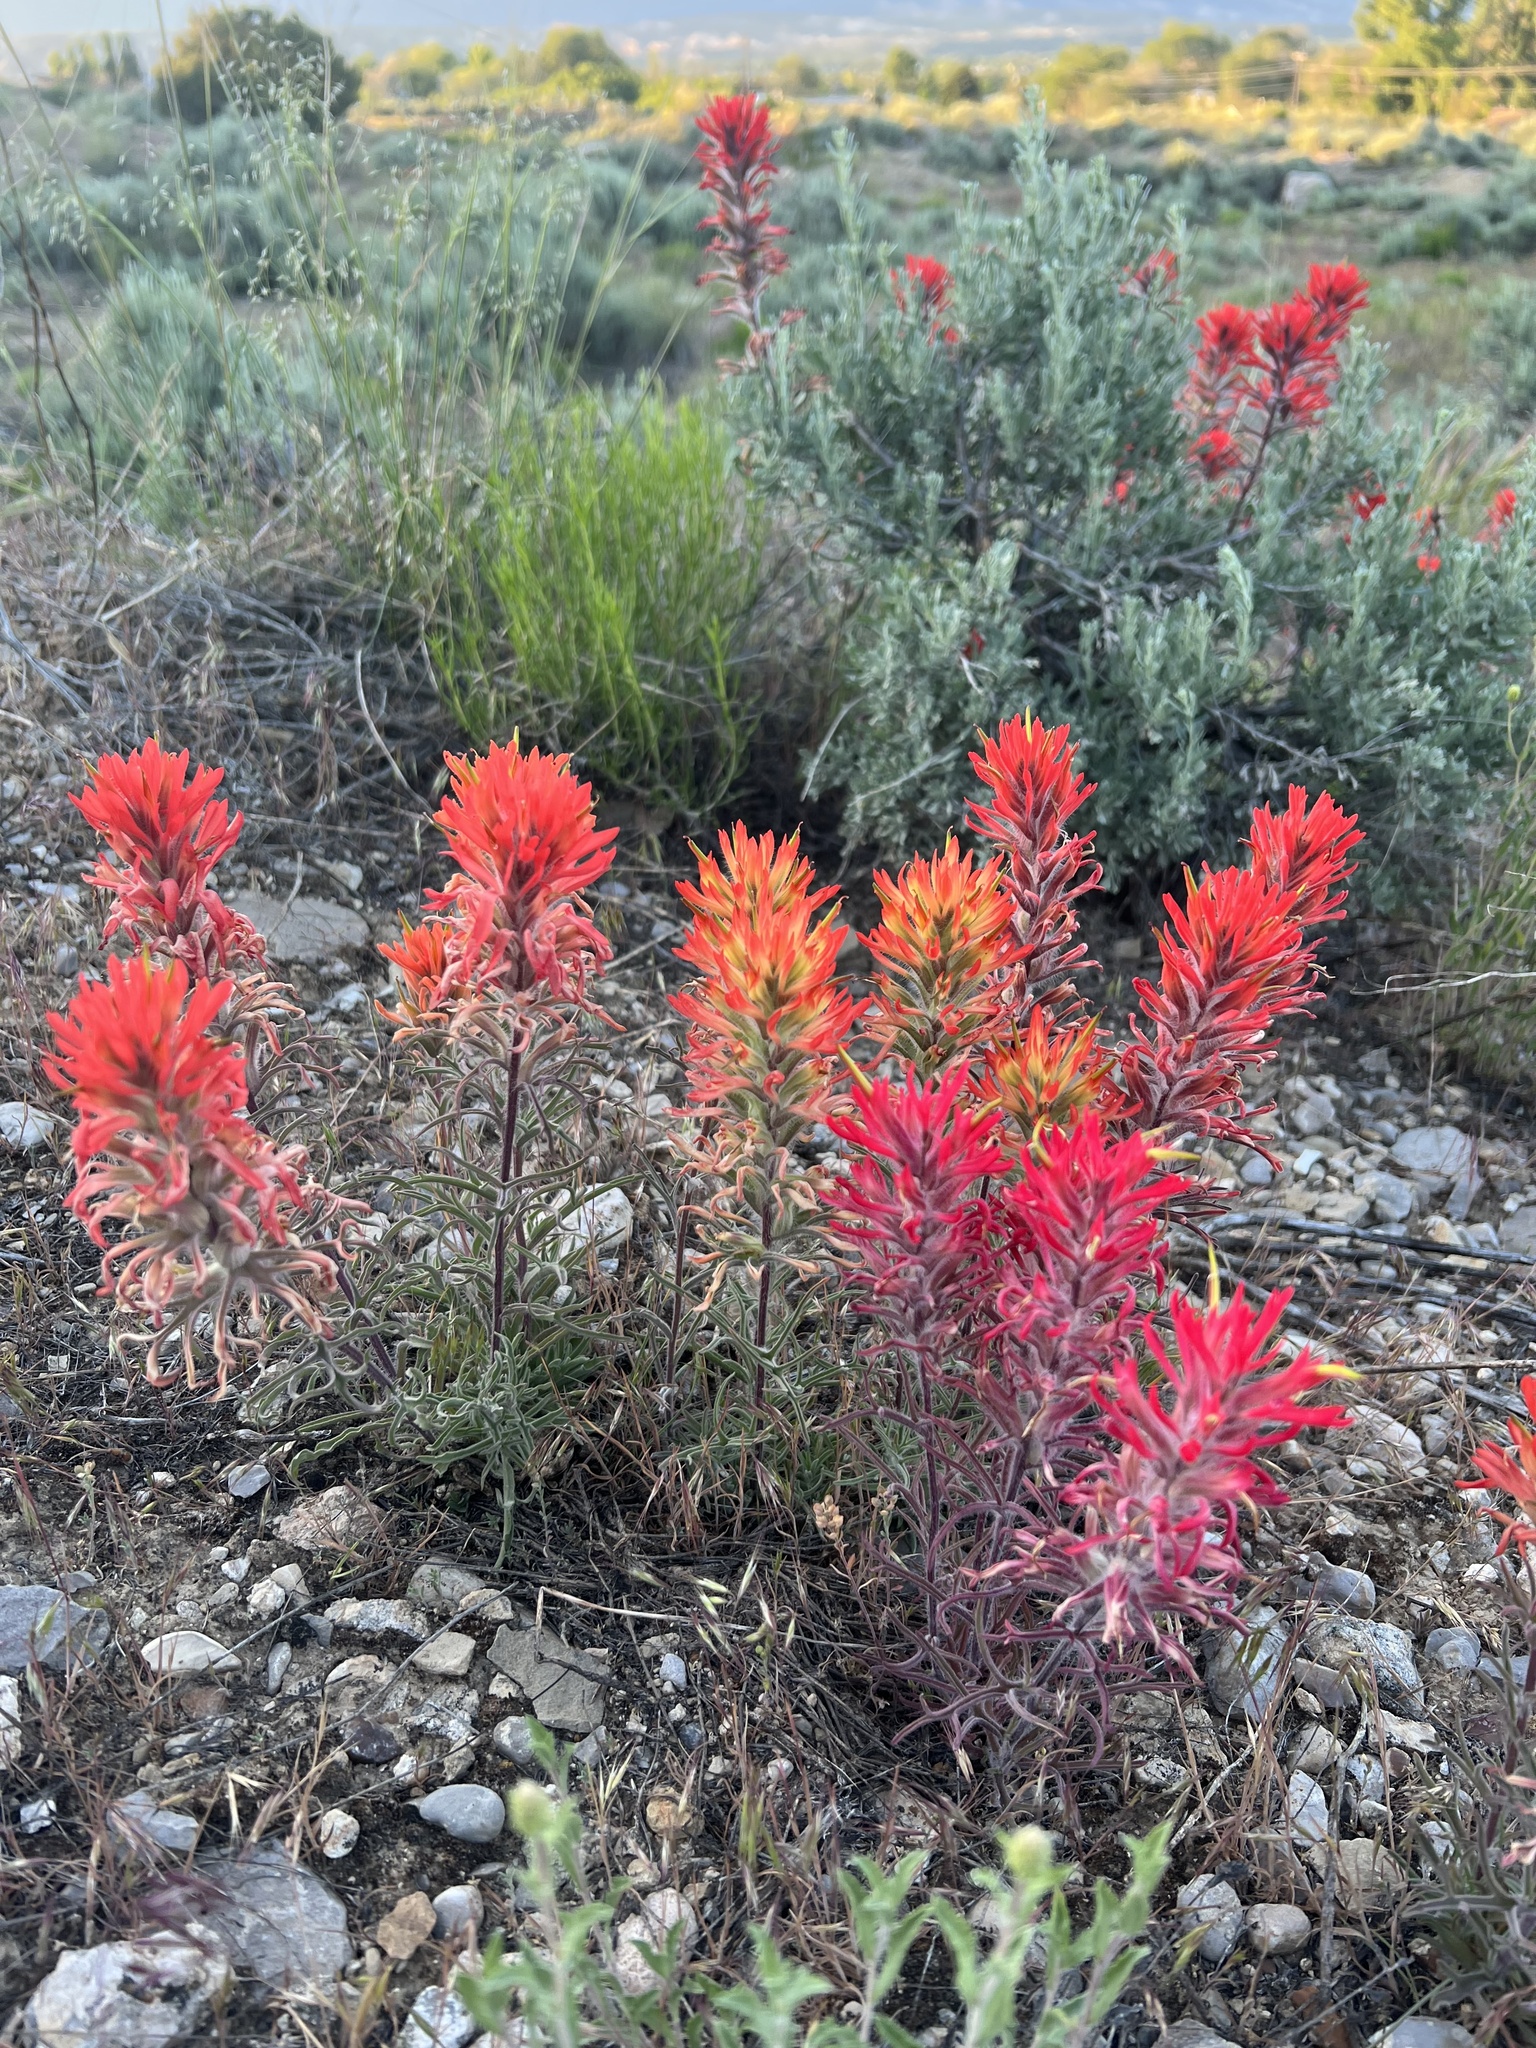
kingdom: Plantae
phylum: Tracheophyta
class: Magnoliopsida
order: Lamiales
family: Orobanchaceae
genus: Castilleja
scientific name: Castilleja chromosa
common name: Desert paintbrush
